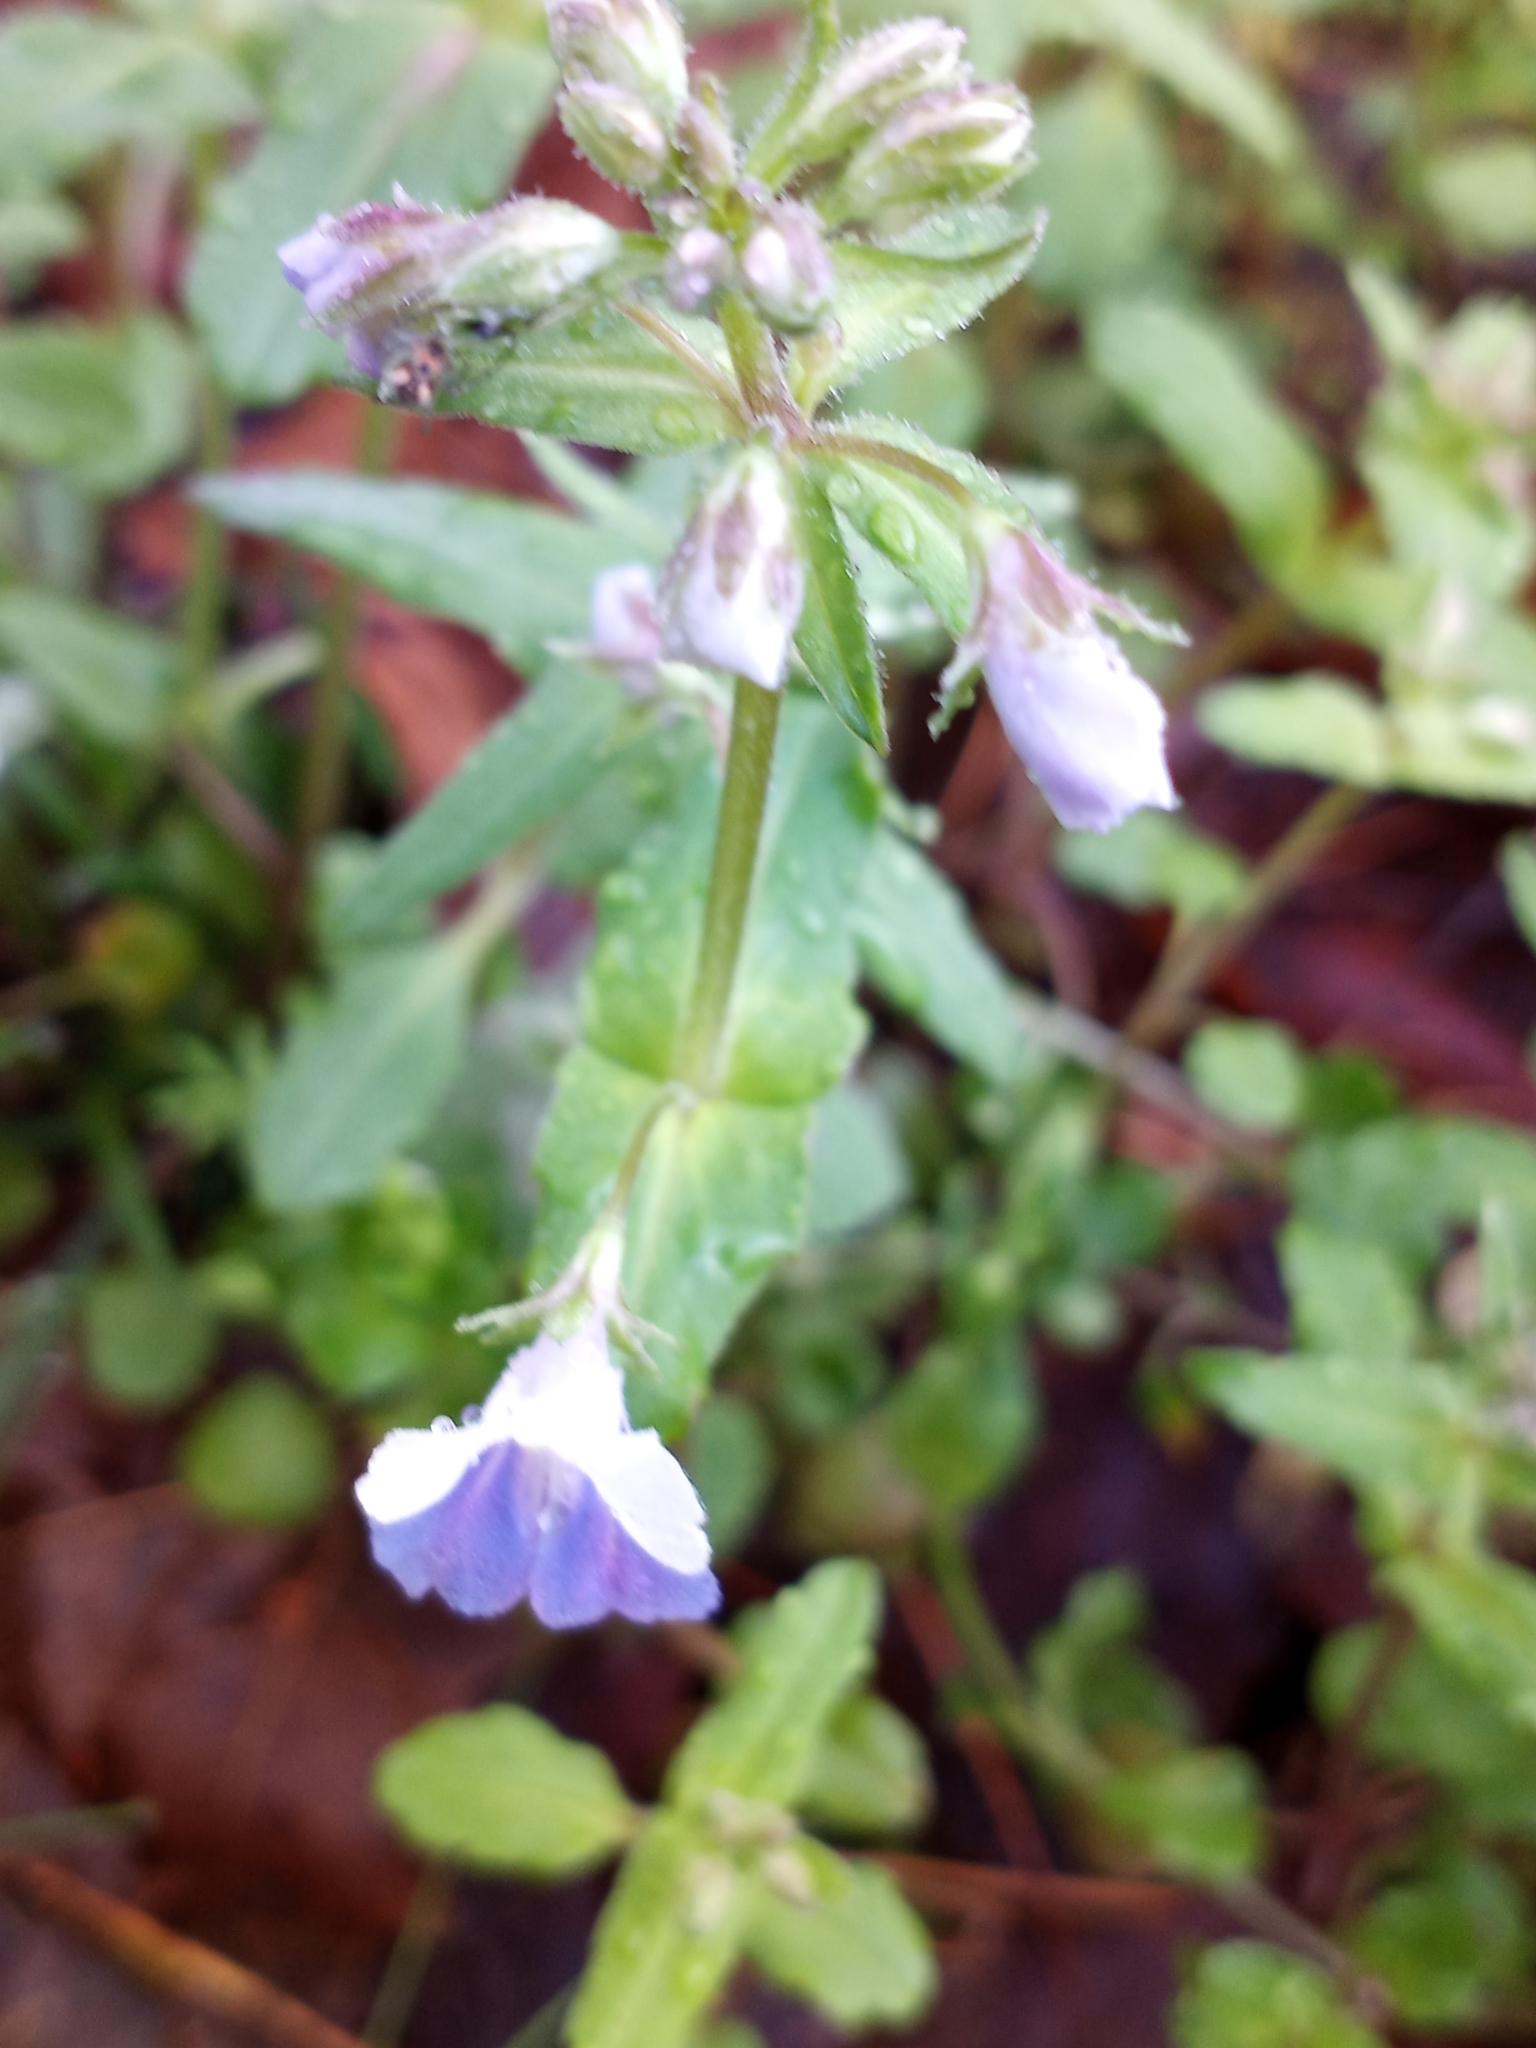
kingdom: Plantae
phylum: Tracheophyta
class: Magnoliopsida
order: Lamiales
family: Plantaginaceae
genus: Collinsia
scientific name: Collinsia verna
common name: Broad-leaved collinsia
